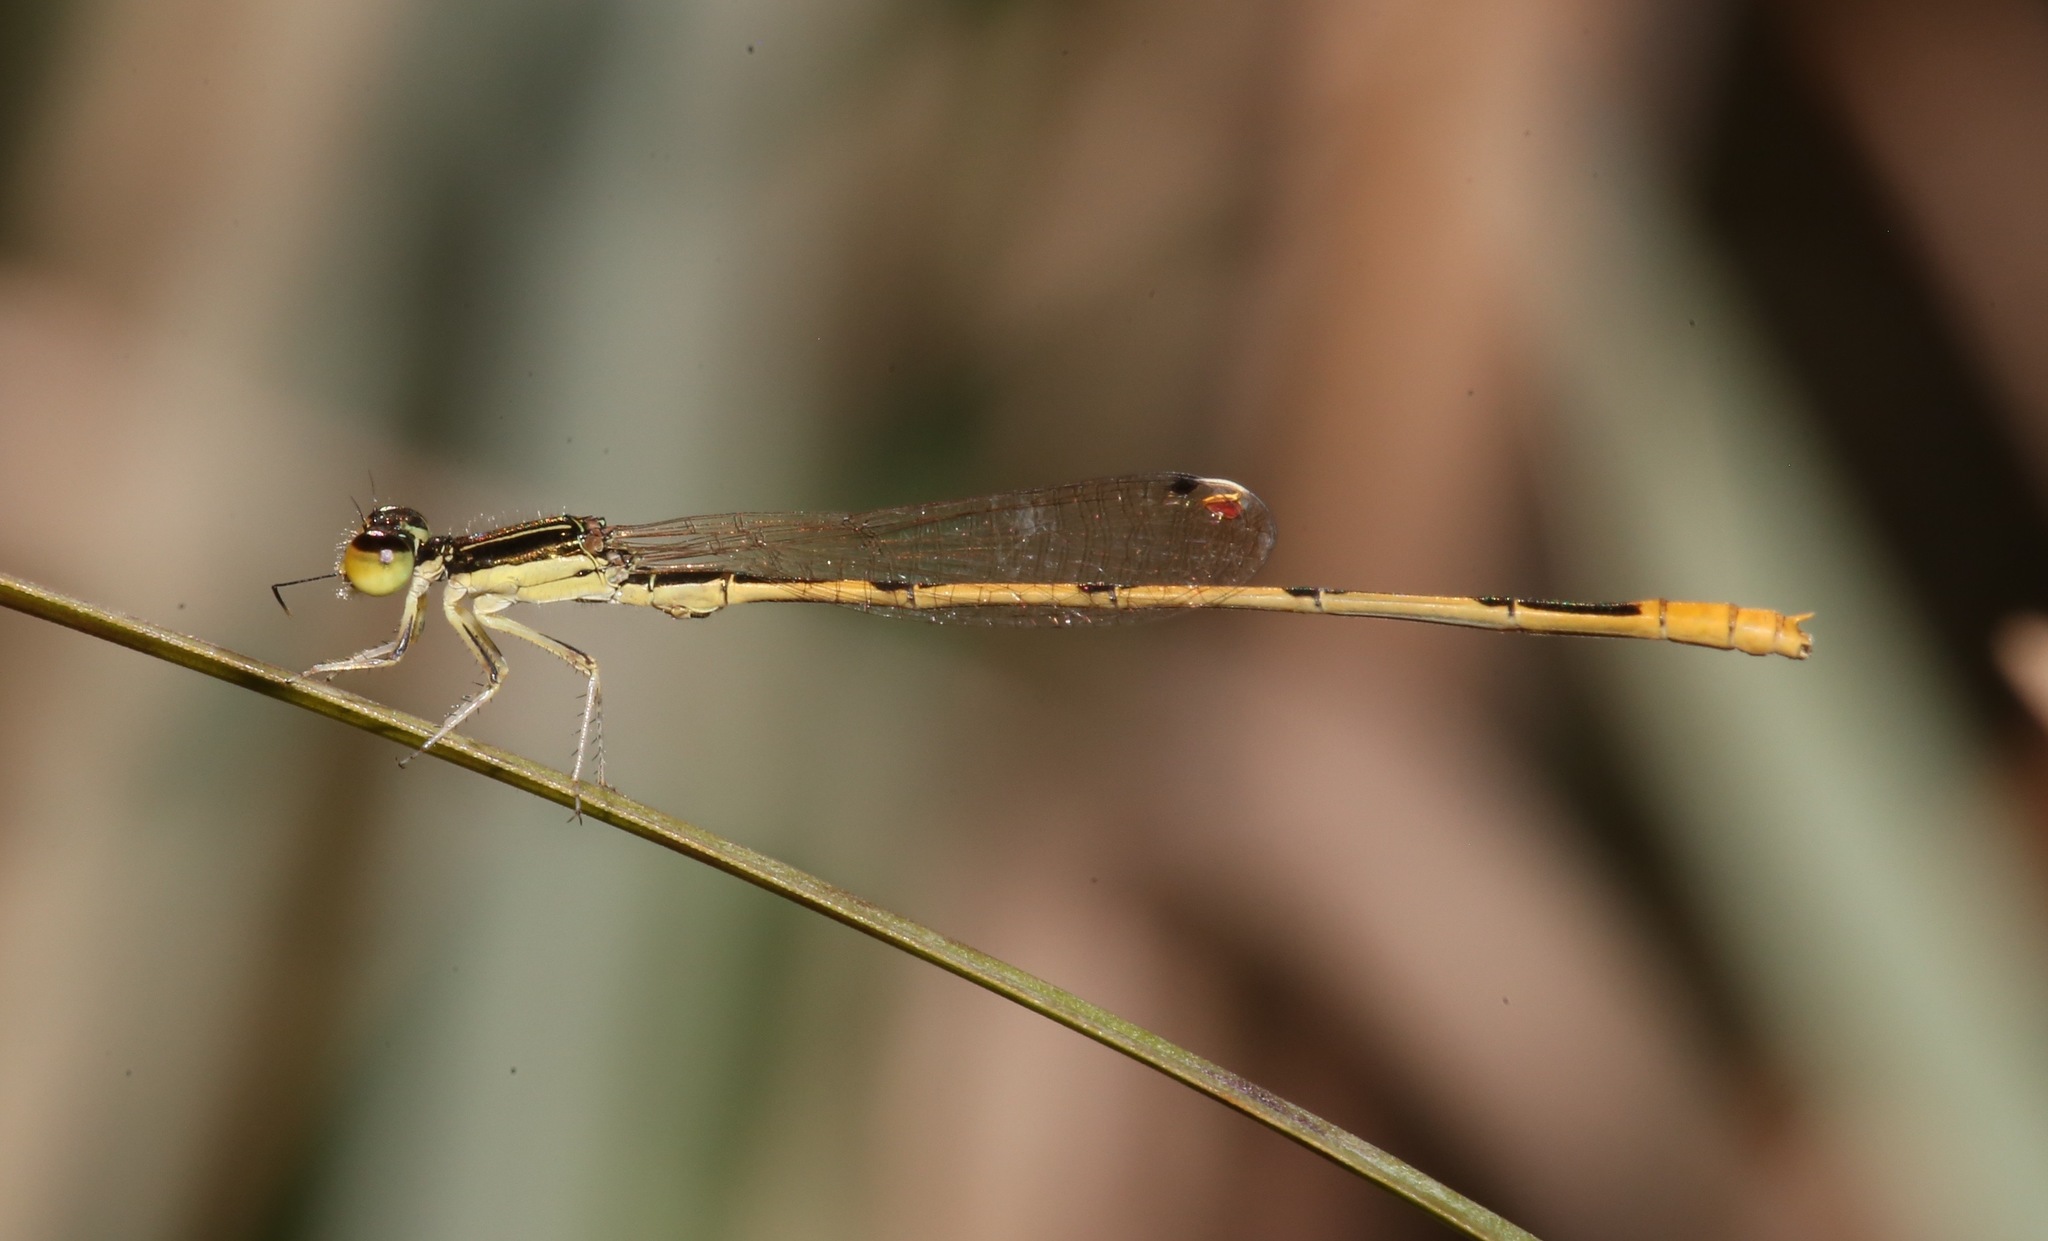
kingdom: Animalia
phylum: Arthropoda
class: Insecta
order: Odonata
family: Coenagrionidae
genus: Ischnura
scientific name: Ischnura hastata
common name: Citrine forktail
